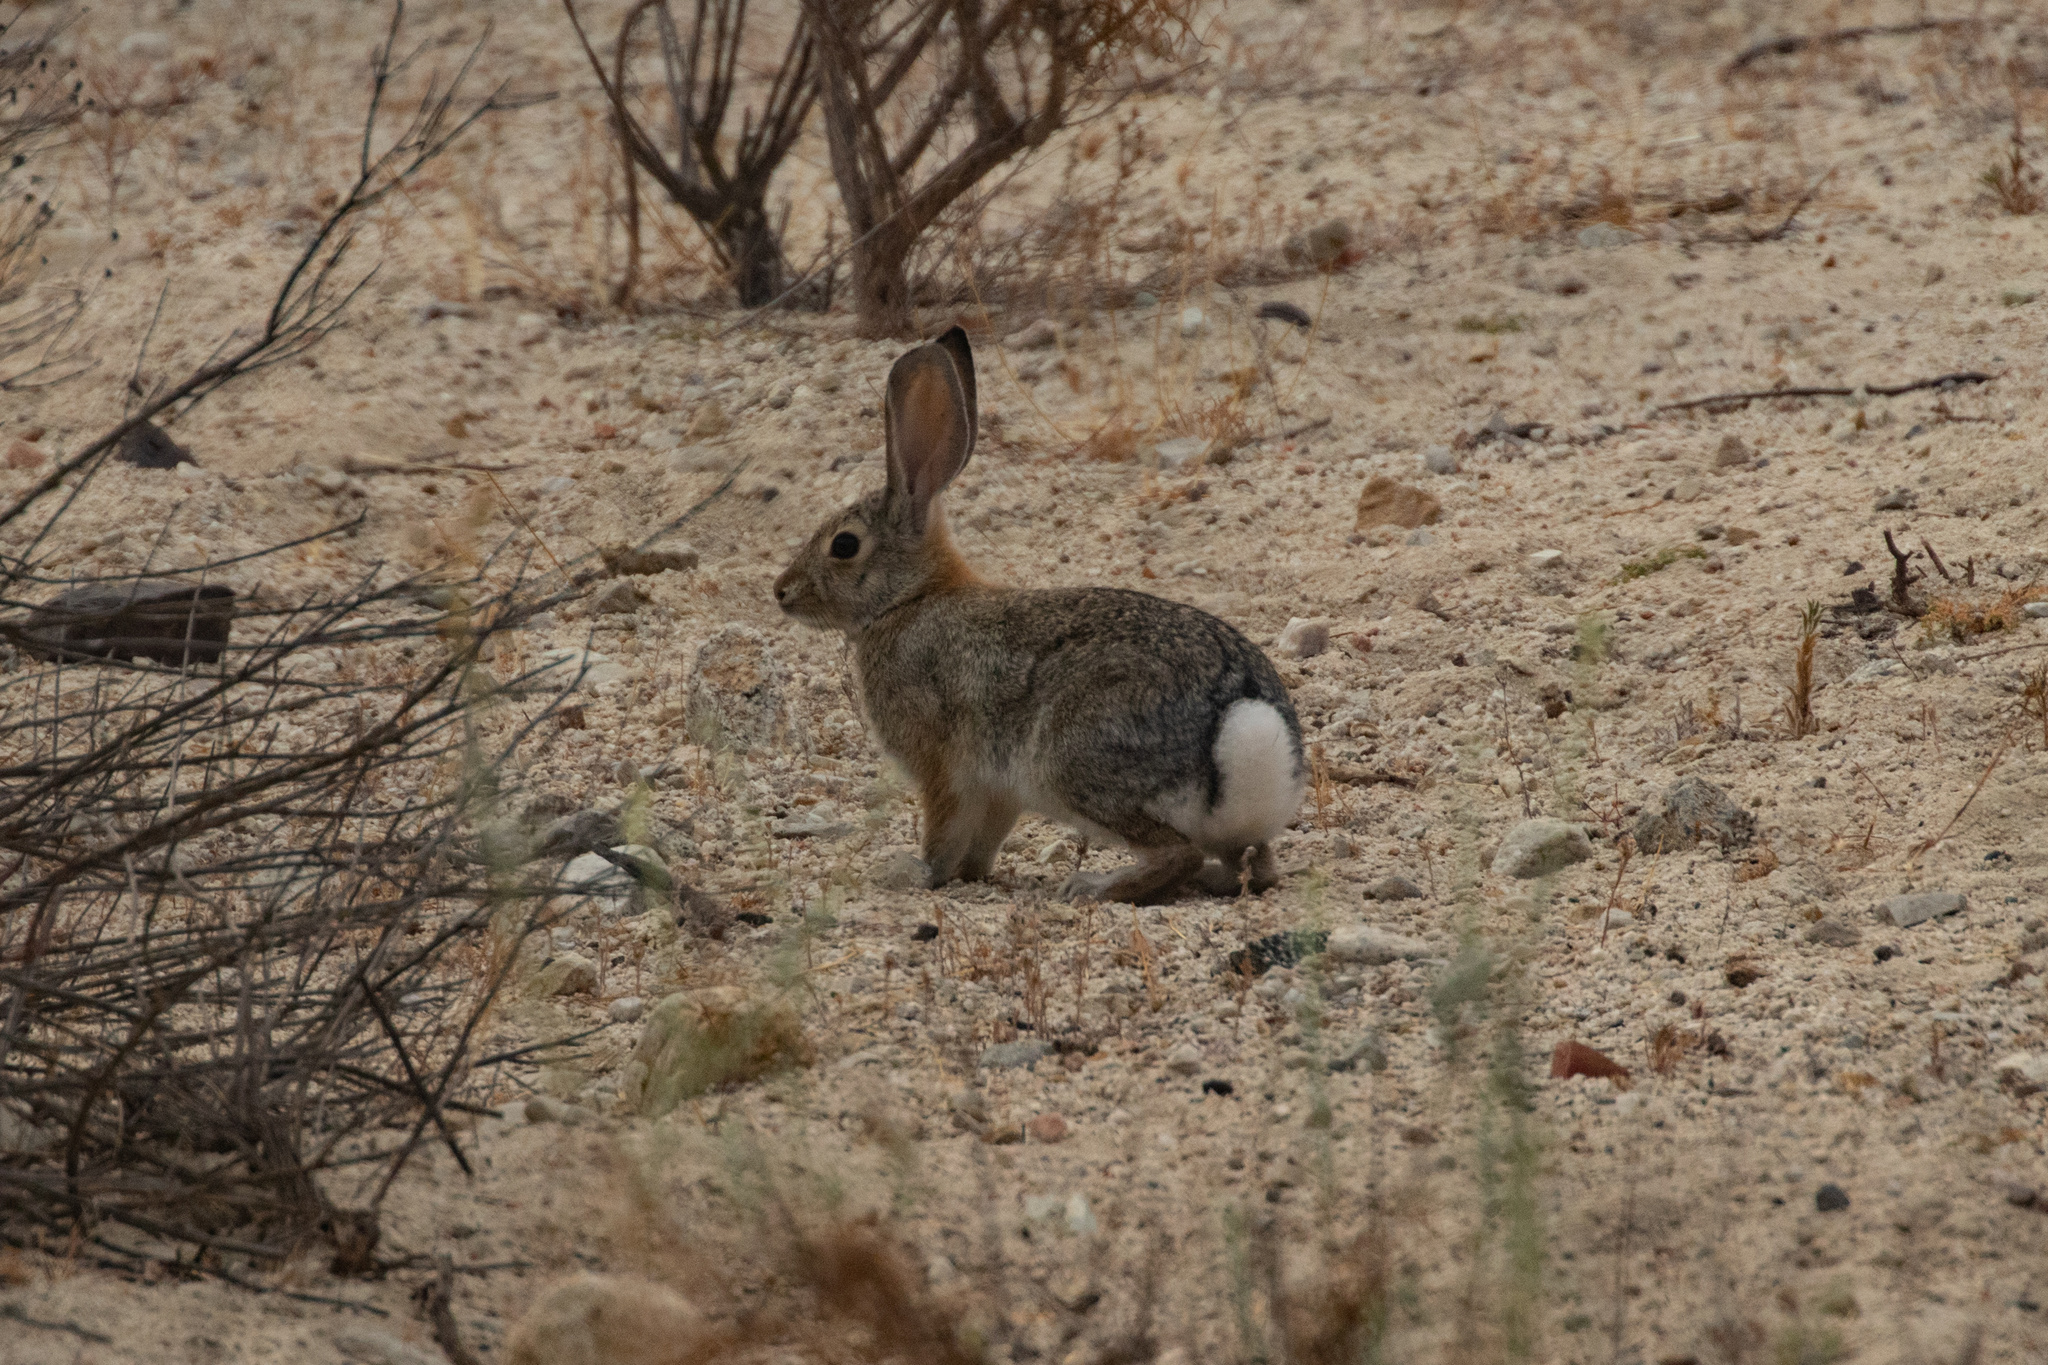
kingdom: Animalia
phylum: Chordata
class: Mammalia
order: Lagomorpha
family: Leporidae
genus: Sylvilagus
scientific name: Sylvilagus audubonii
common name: Desert cottontail
